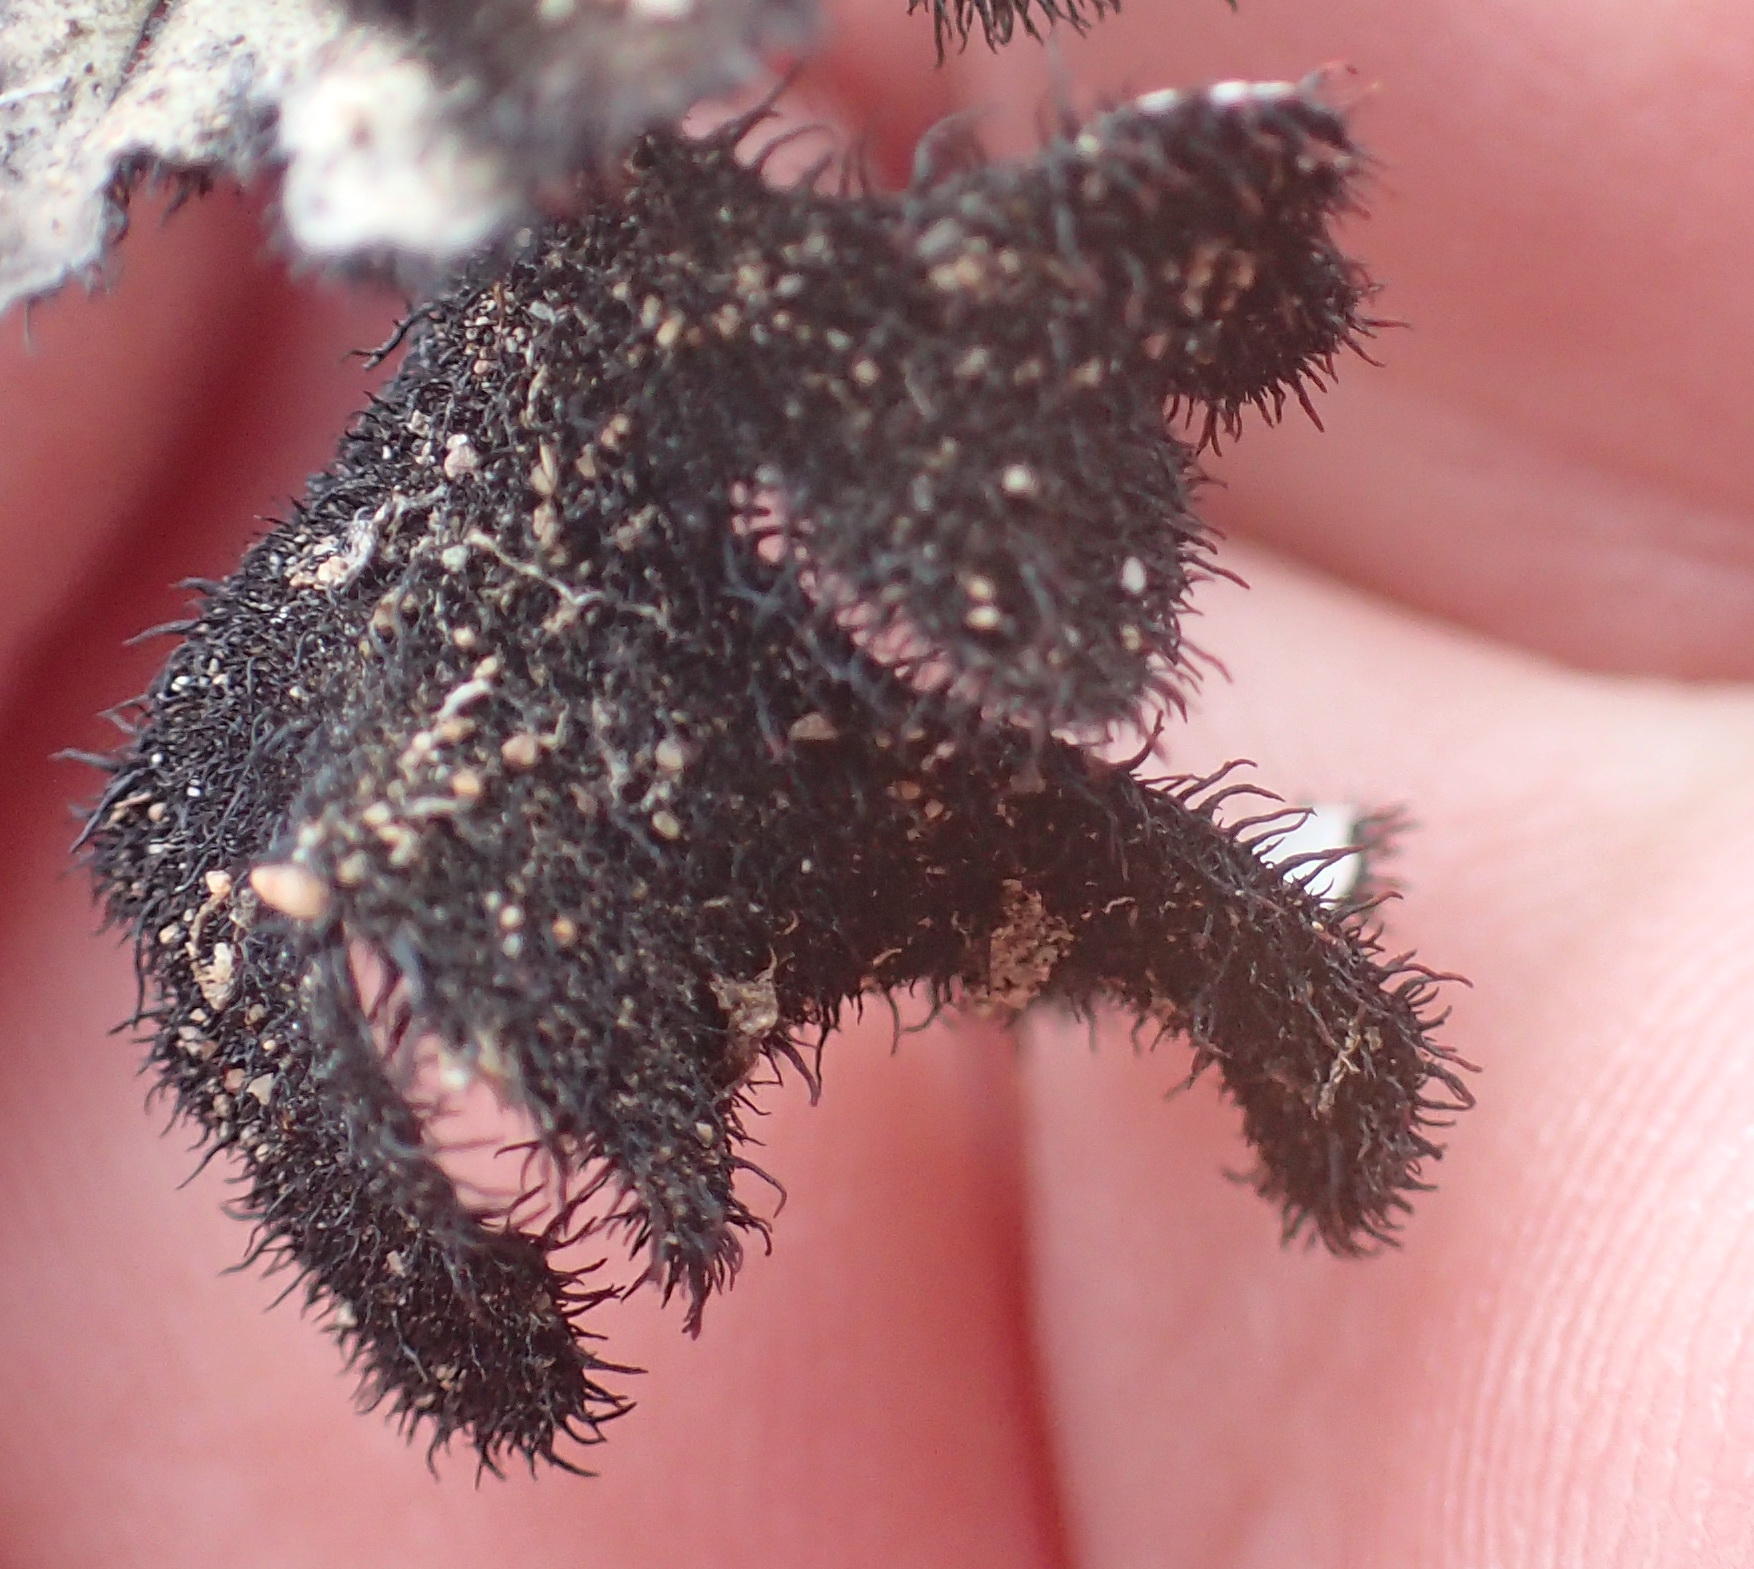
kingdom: Fungi
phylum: Ascomycota
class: Lecanoromycetes
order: Lecanorales
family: Parmeliaceae
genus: Xanthoparmelia
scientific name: Xanthoparmelia hottentotta
